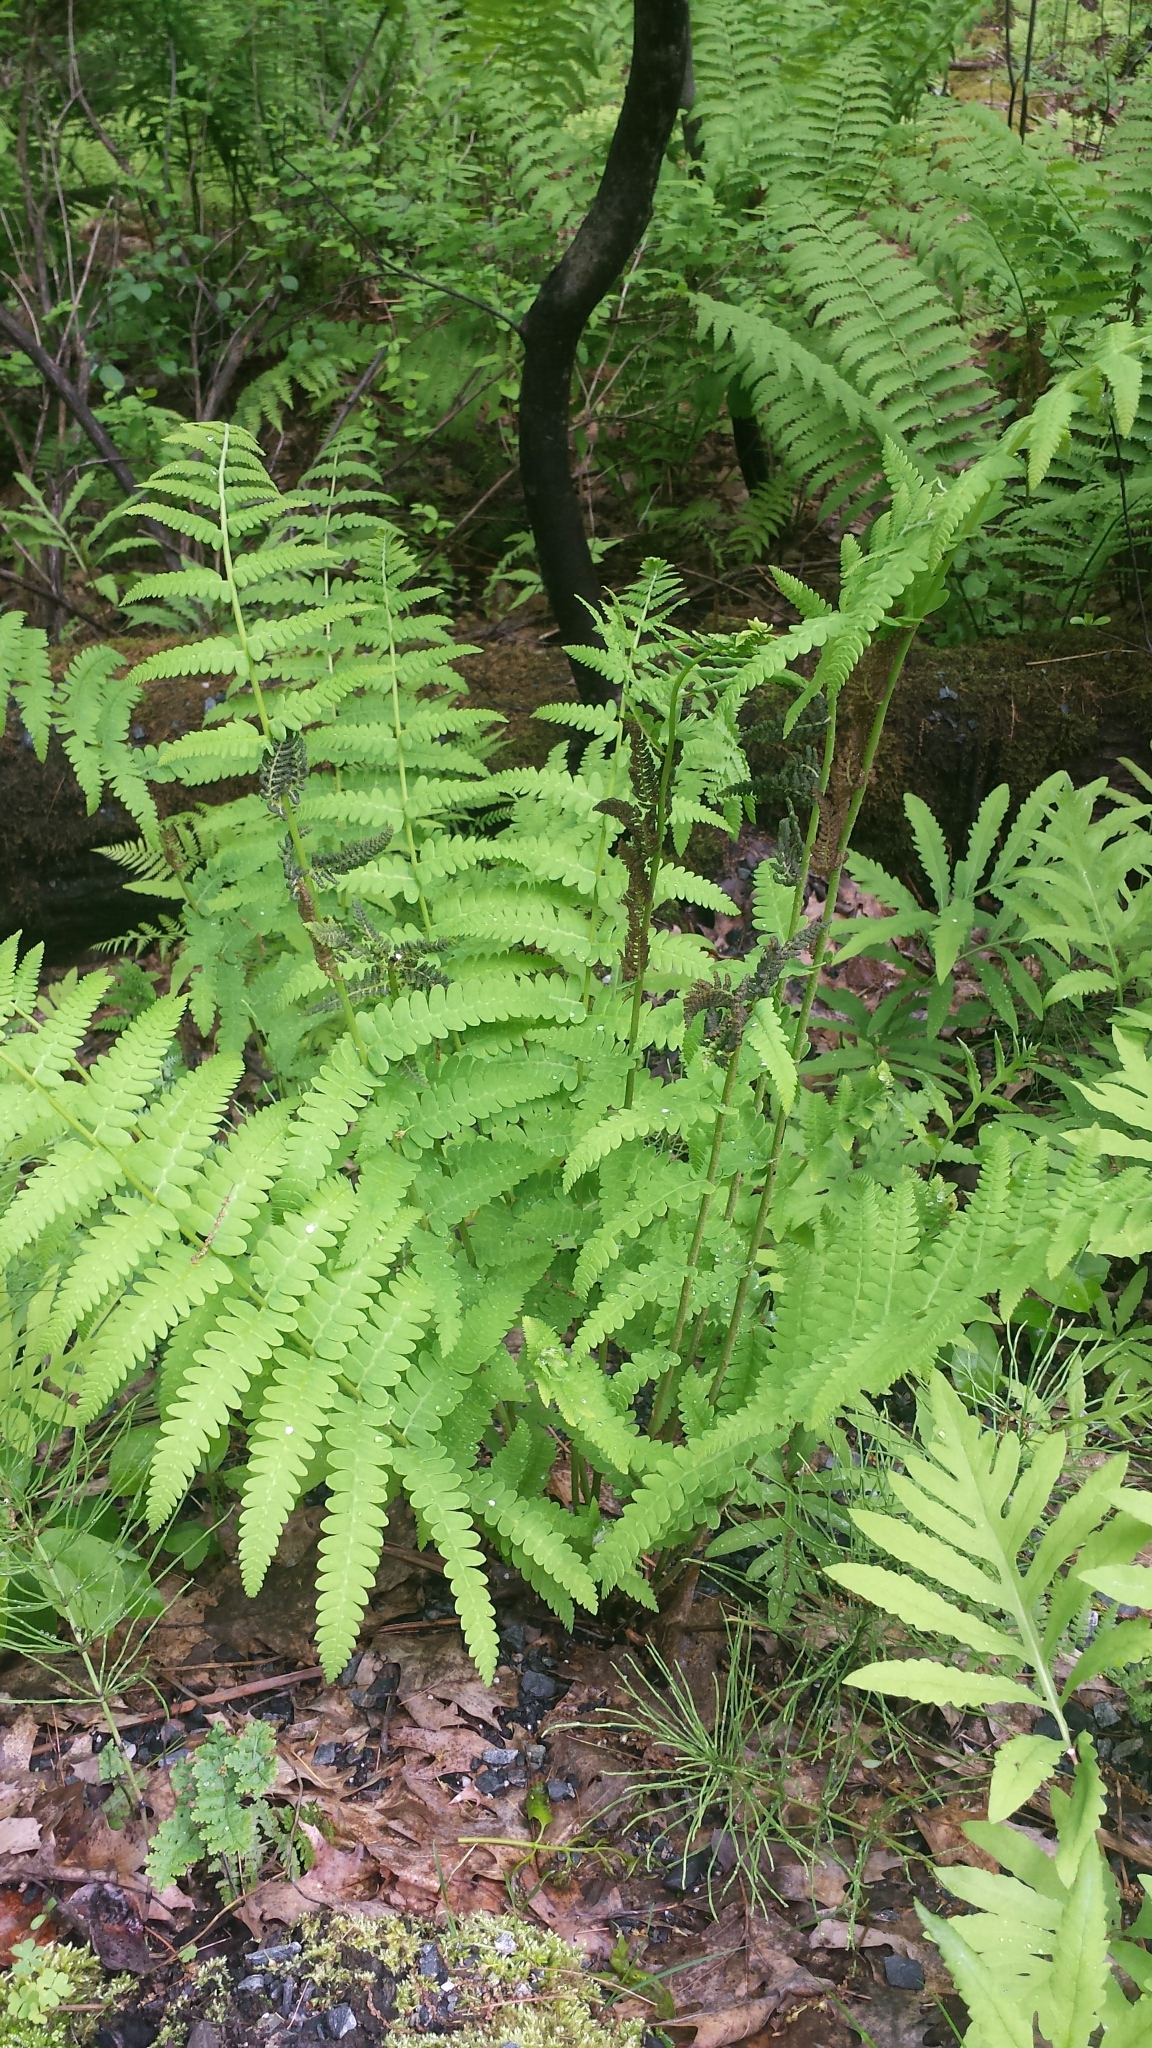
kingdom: Plantae
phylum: Tracheophyta
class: Polypodiopsida
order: Osmundales
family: Osmundaceae
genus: Claytosmunda
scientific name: Claytosmunda claytoniana
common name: Clayton's fern
